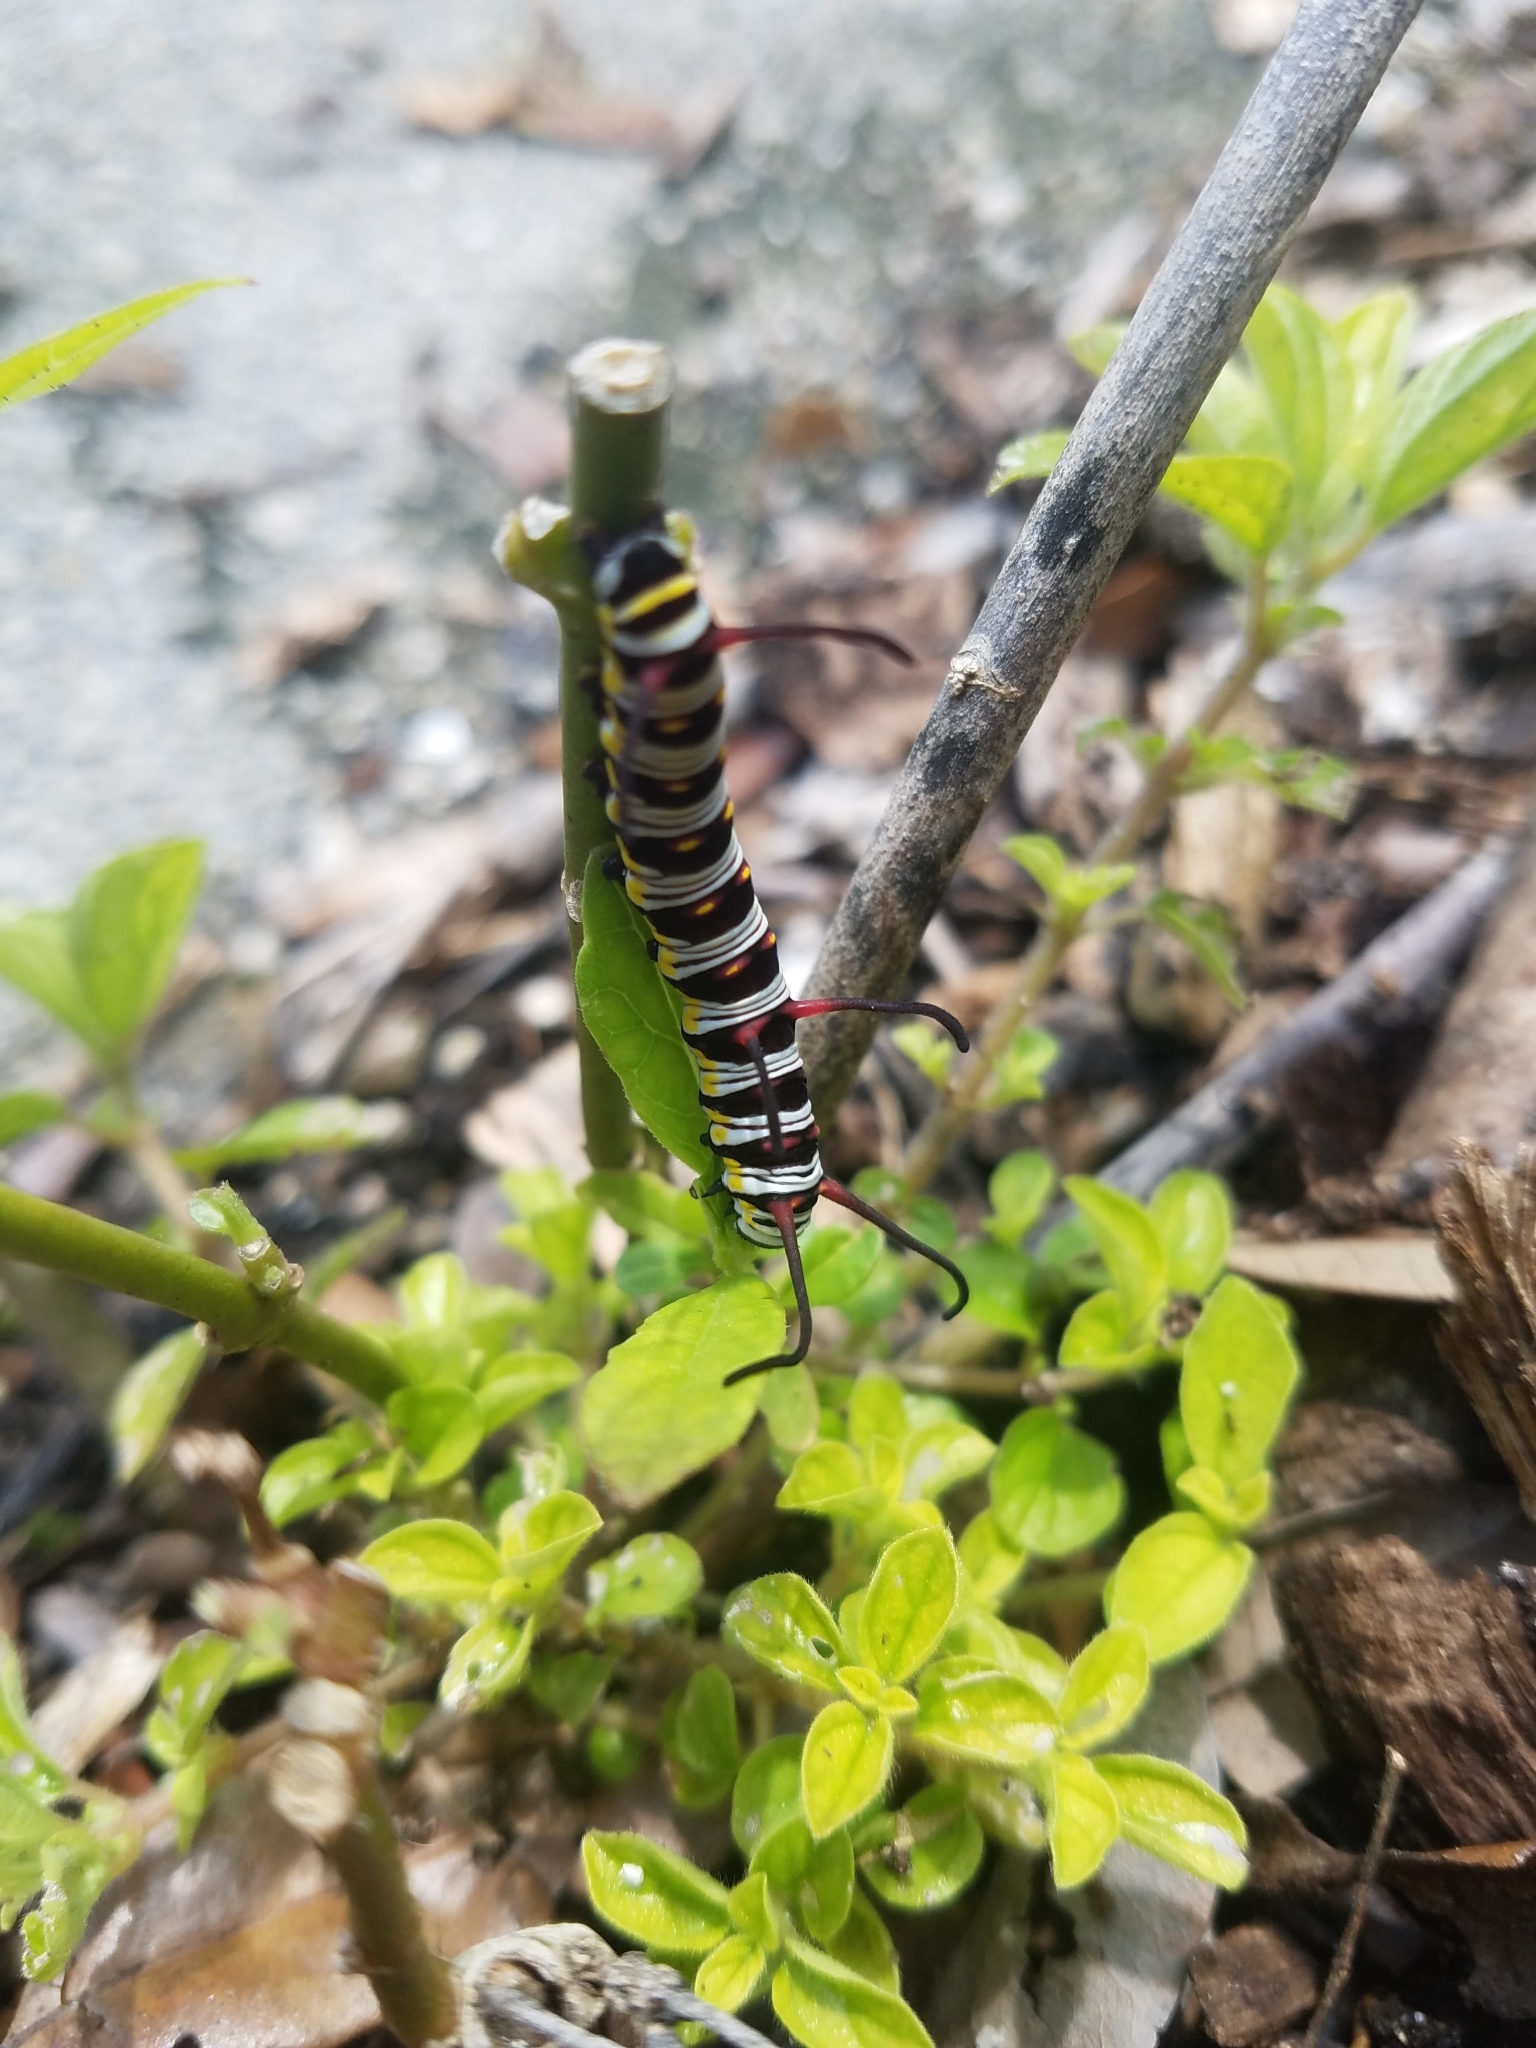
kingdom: Animalia
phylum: Arthropoda
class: Insecta
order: Lepidoptera
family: Nymphalidae
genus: Danaus
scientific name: Danaus gilippus
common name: Queen
